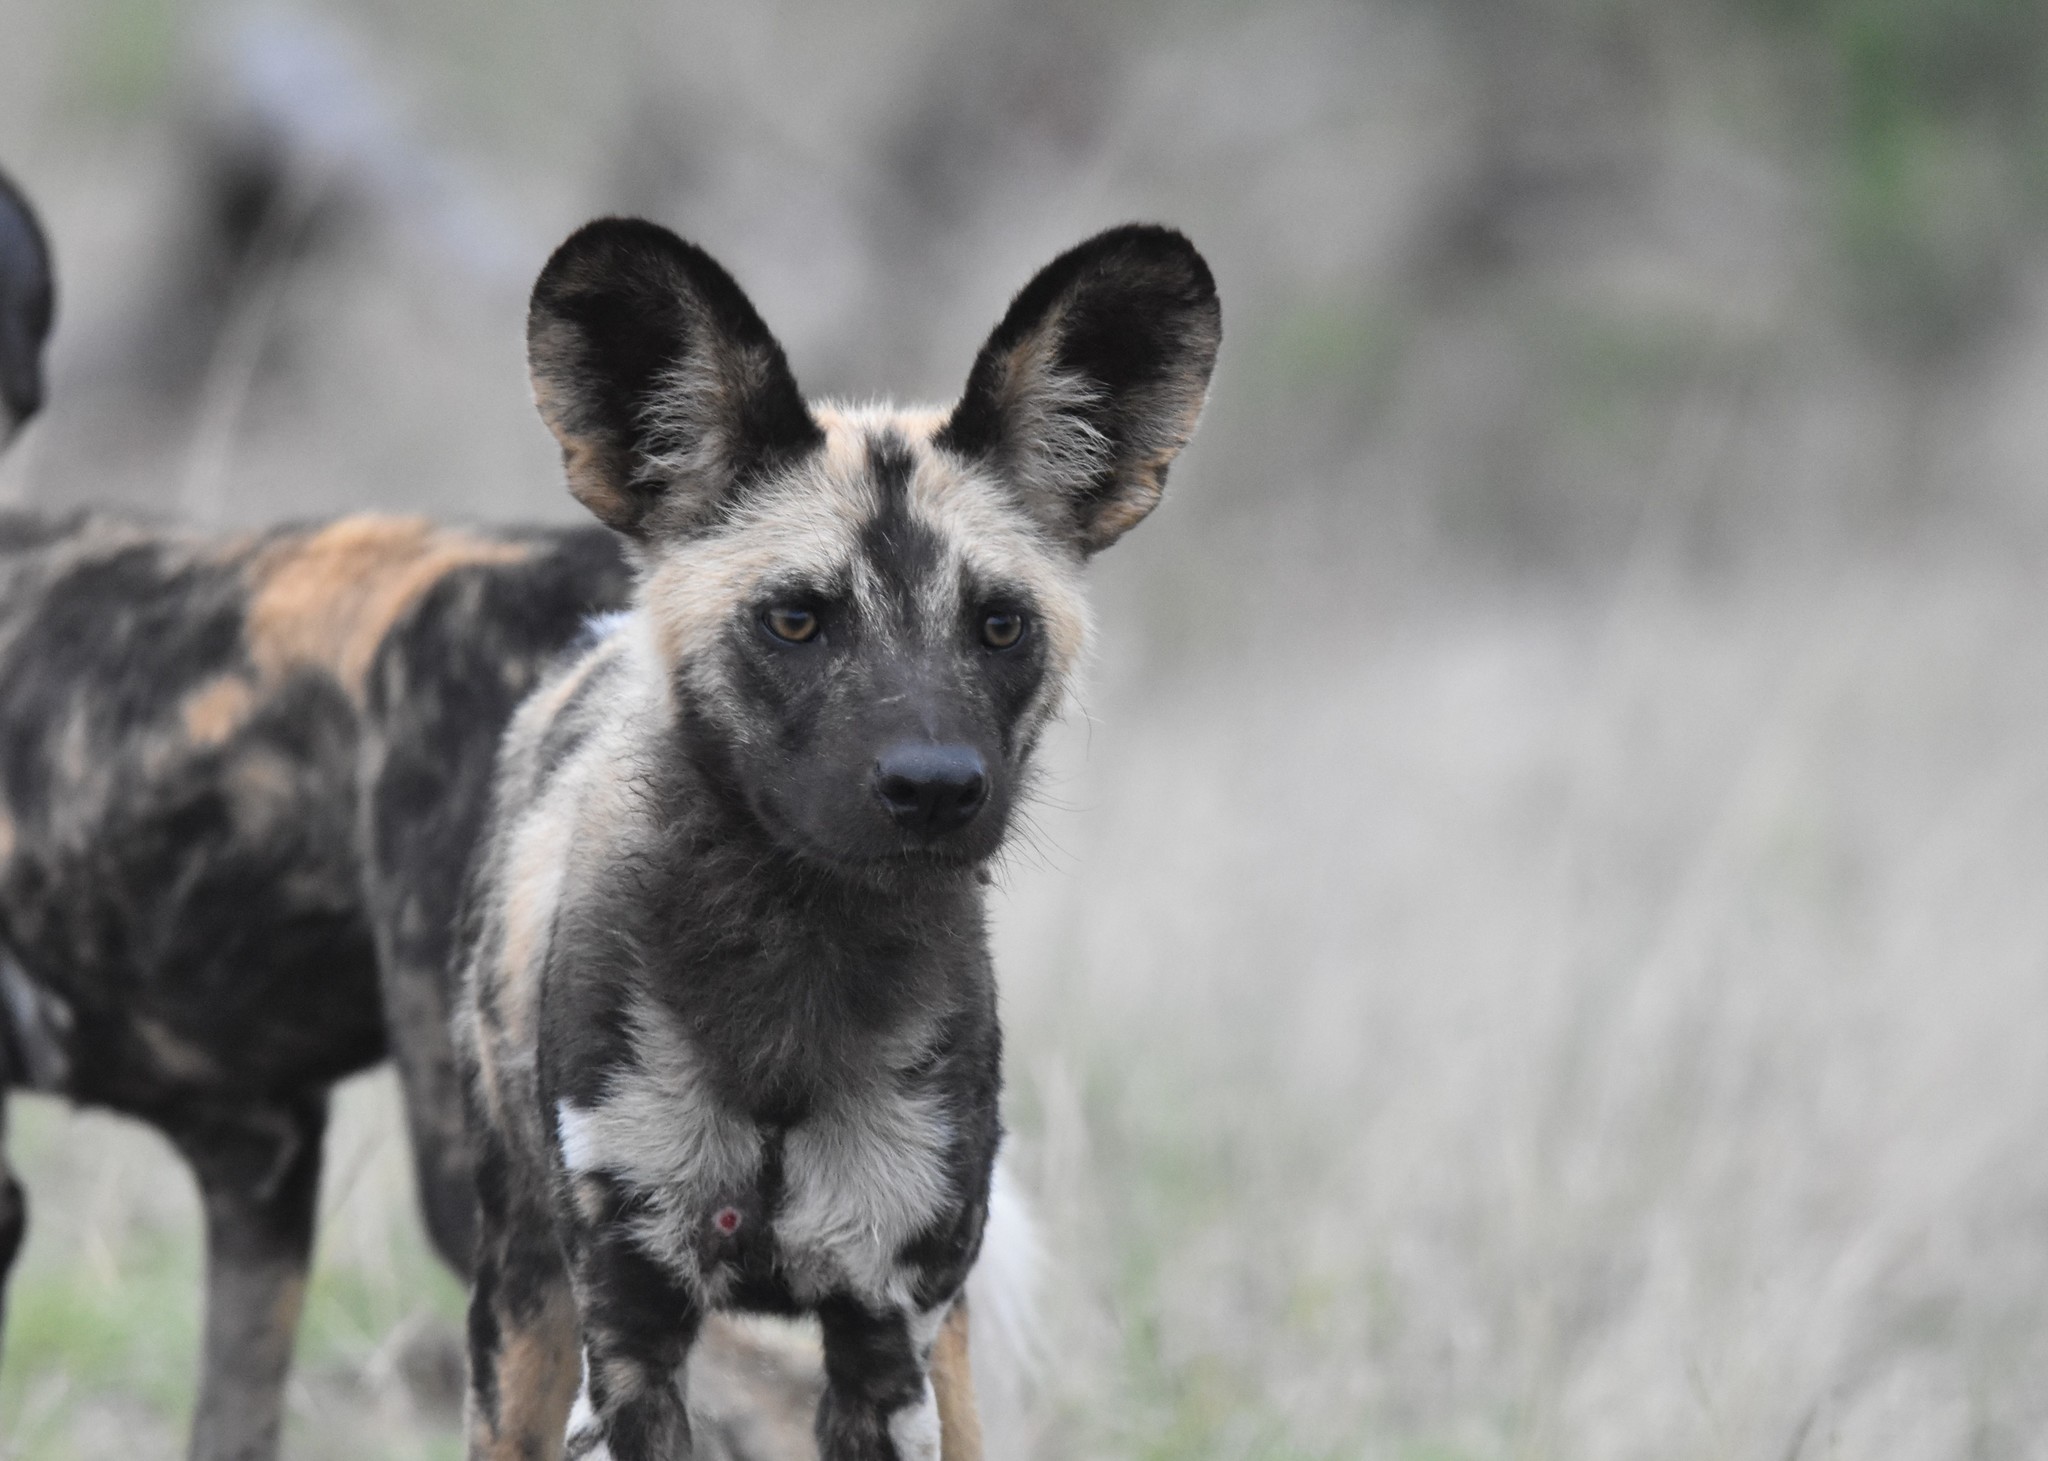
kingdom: Animalia
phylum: Chordata
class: Mammalia
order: Carnivora
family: Canidae
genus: Lycaon
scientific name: Lycaon pictus
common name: African wild dog
